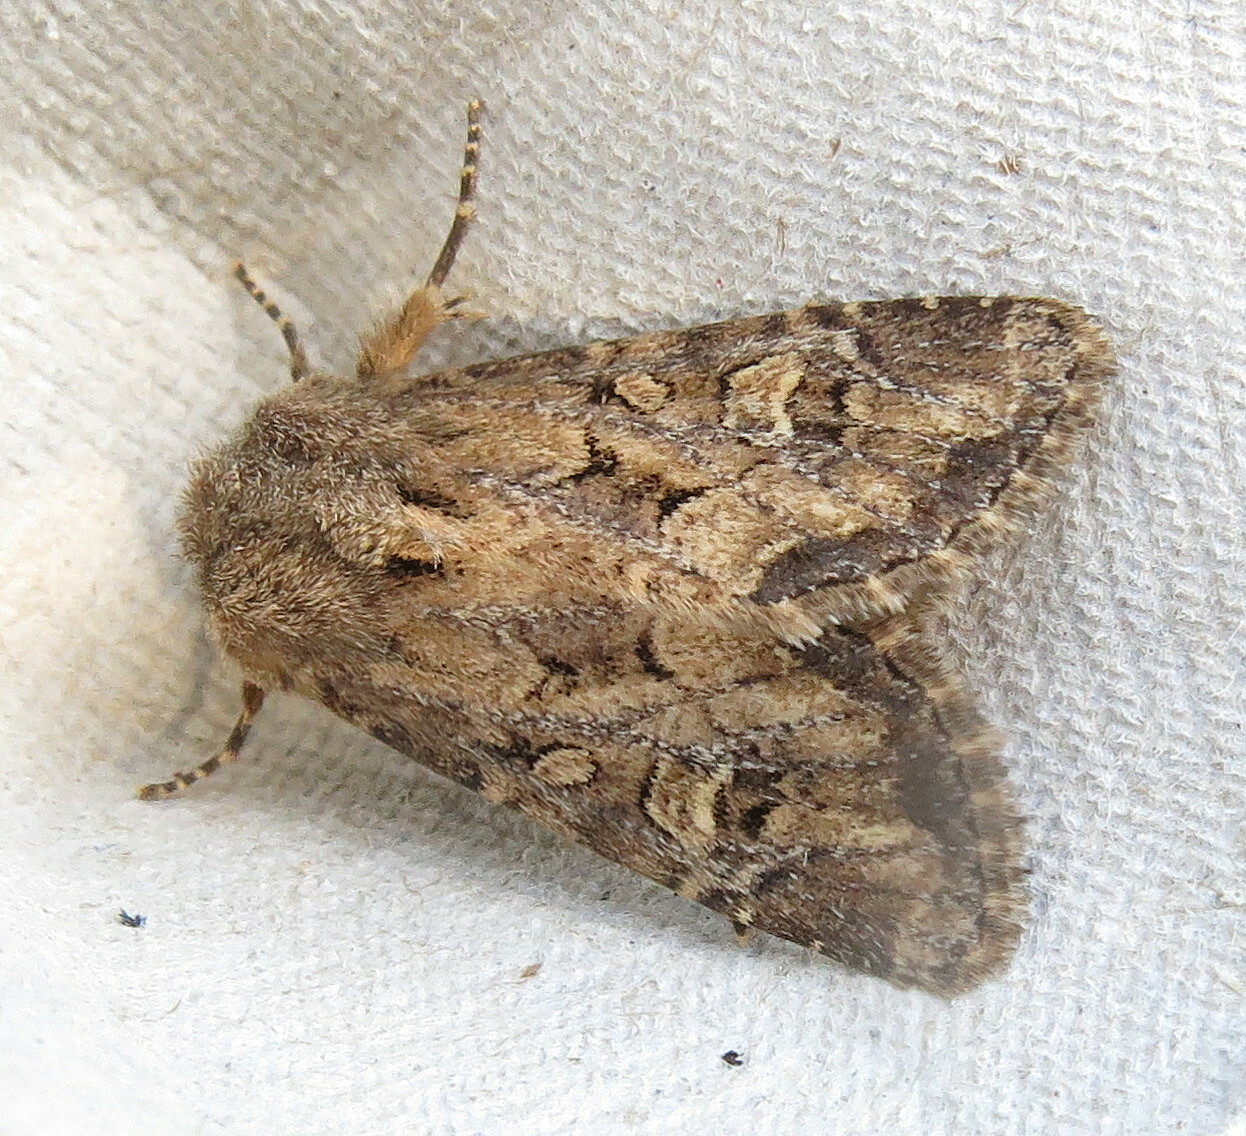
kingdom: Animalia
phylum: Arthropoda
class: Insecta
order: Lepidoptera
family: Noctuidae
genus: Luperina
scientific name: Luperina testacea
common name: Flounced rustic
